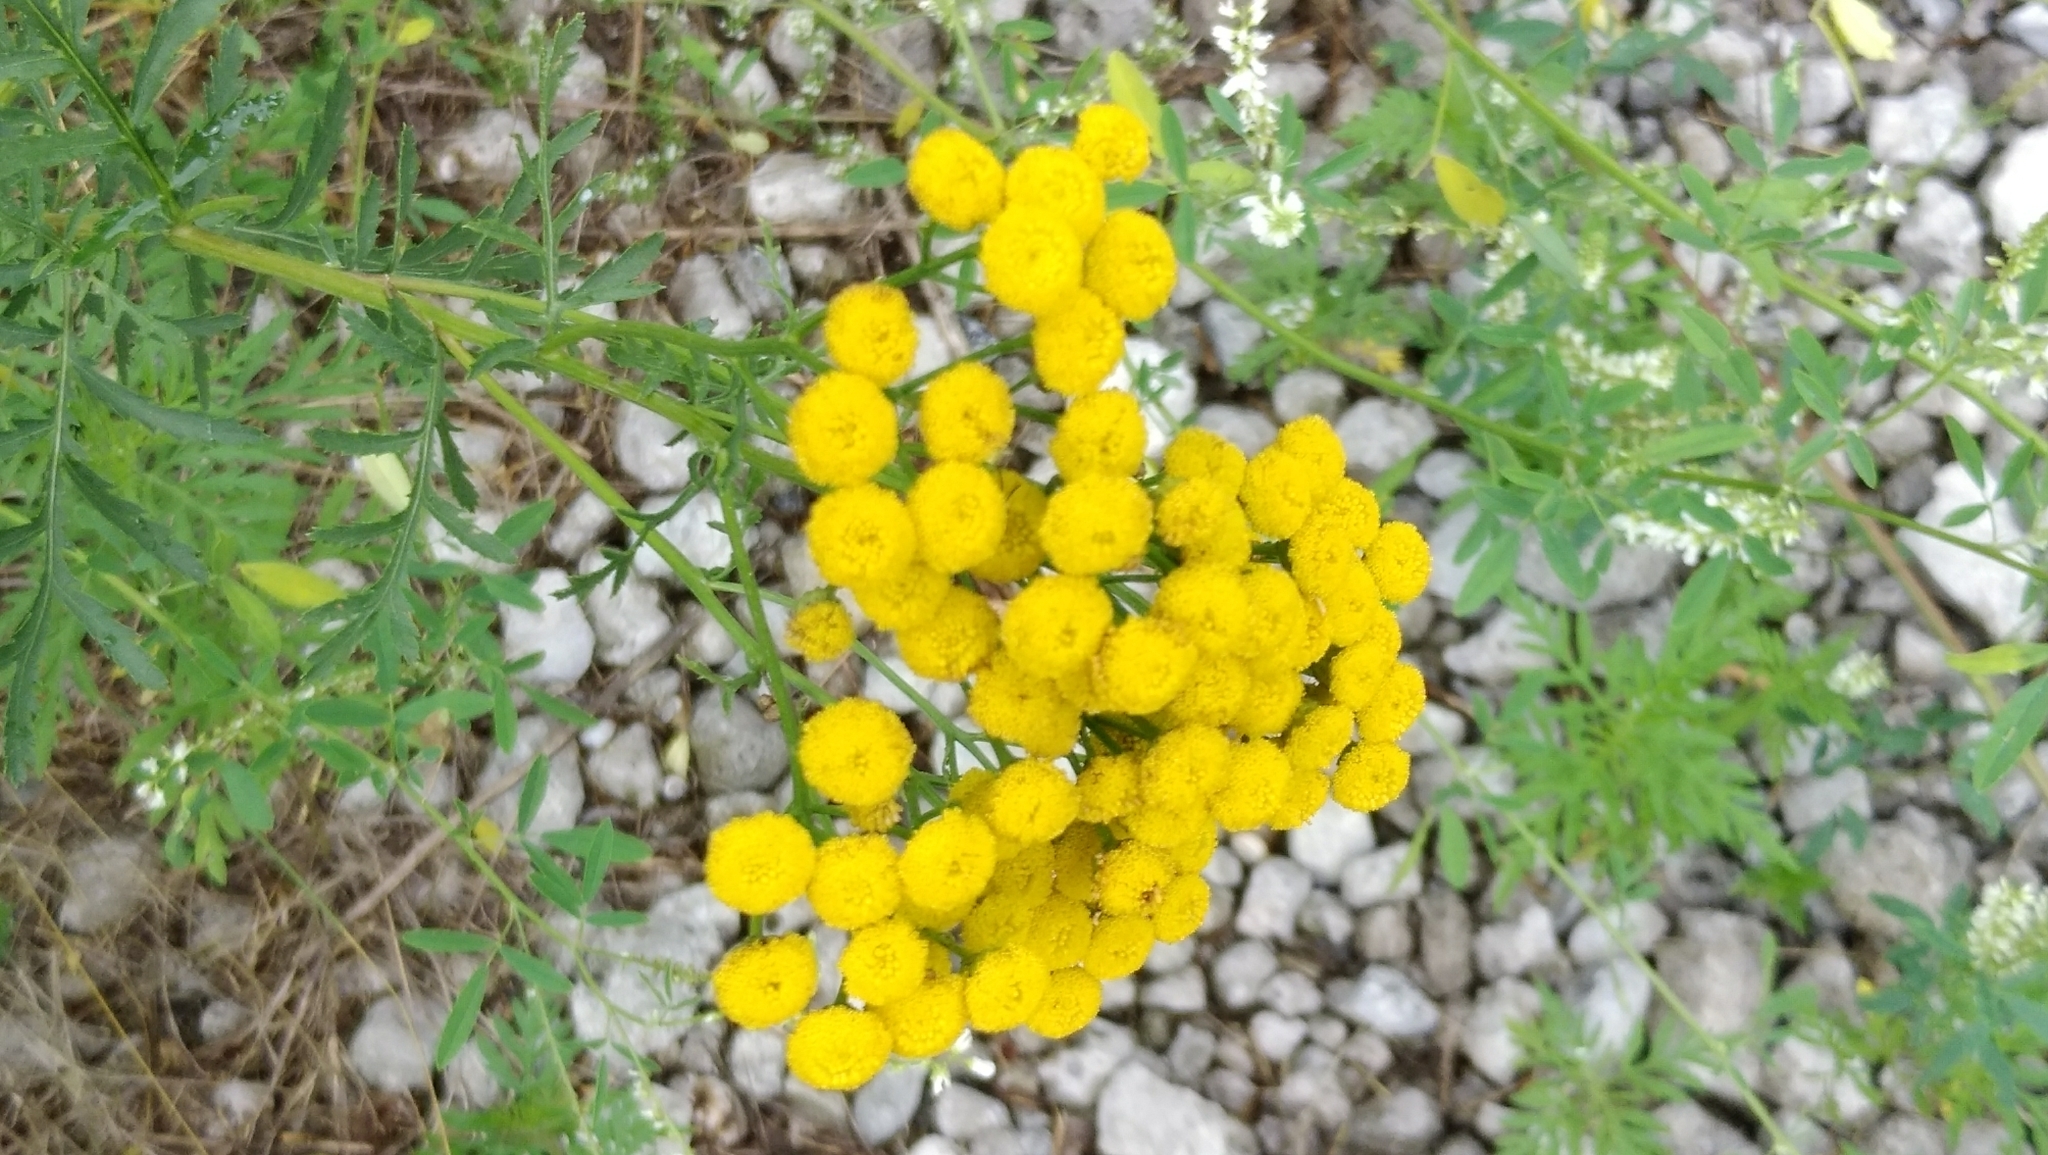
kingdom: Plantae
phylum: Tracheophyta
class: Magnoliopsida
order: Asterales
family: Asteraceae
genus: Tanacetum
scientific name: Tanacetum vulgare
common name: Common tansy
